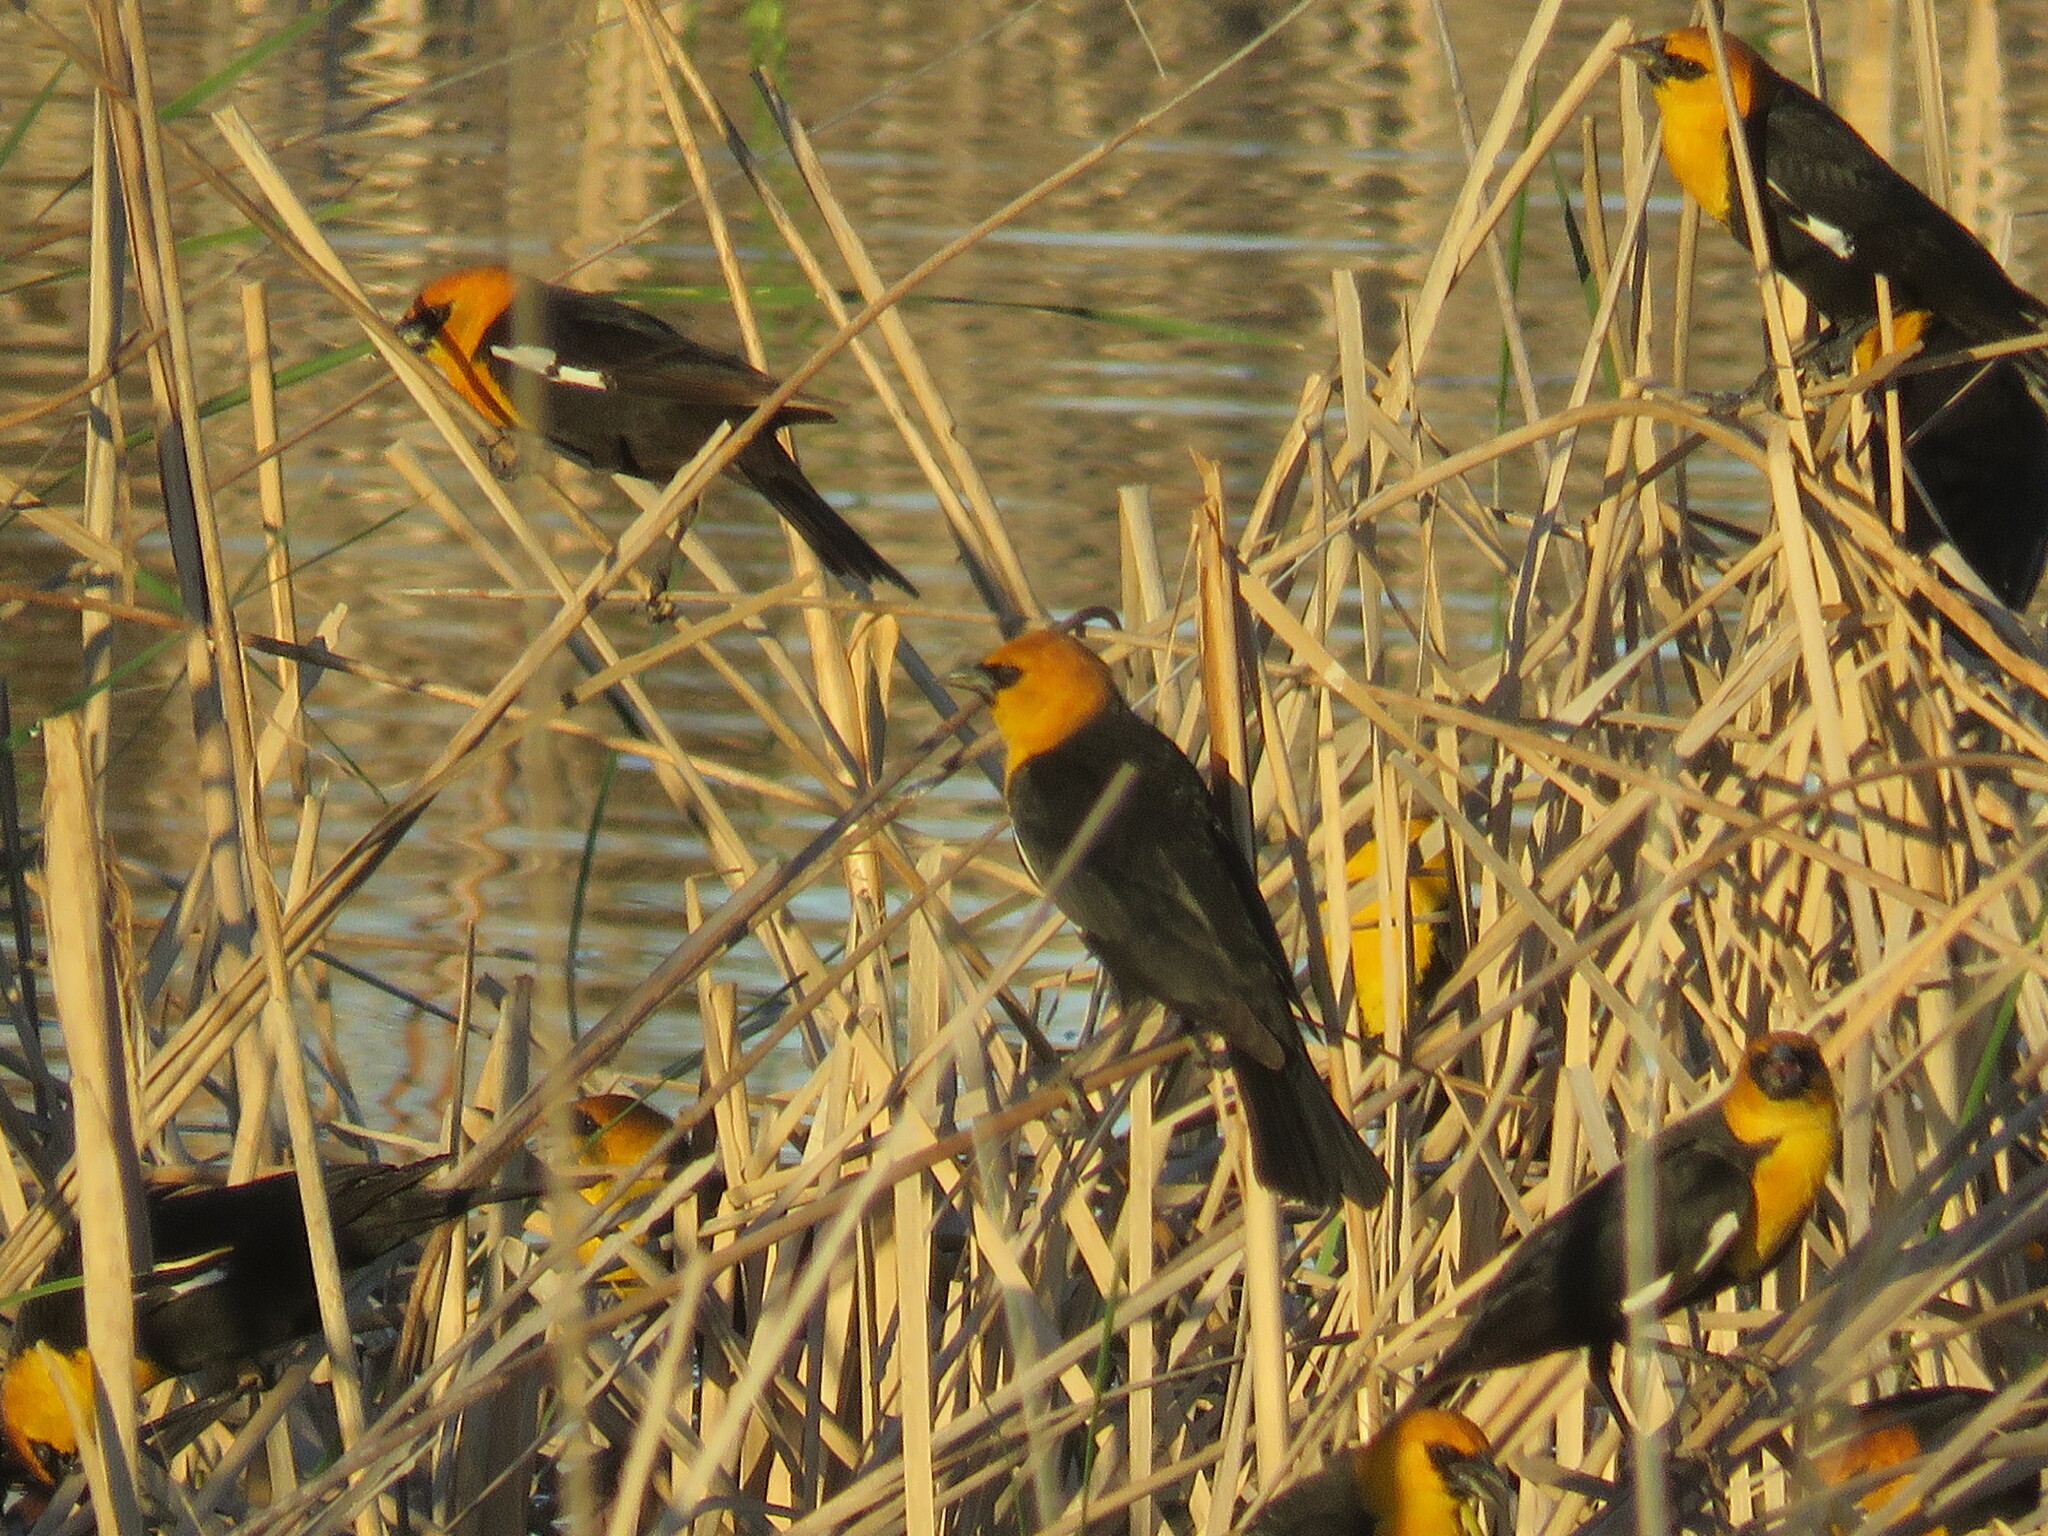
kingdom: Animalia
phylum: Chordata
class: Aves
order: Passeriformes
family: Icteridae
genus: Xanthocephalus
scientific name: Xanthocephalus xanthocephalus
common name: Yellow-headed blackbird
